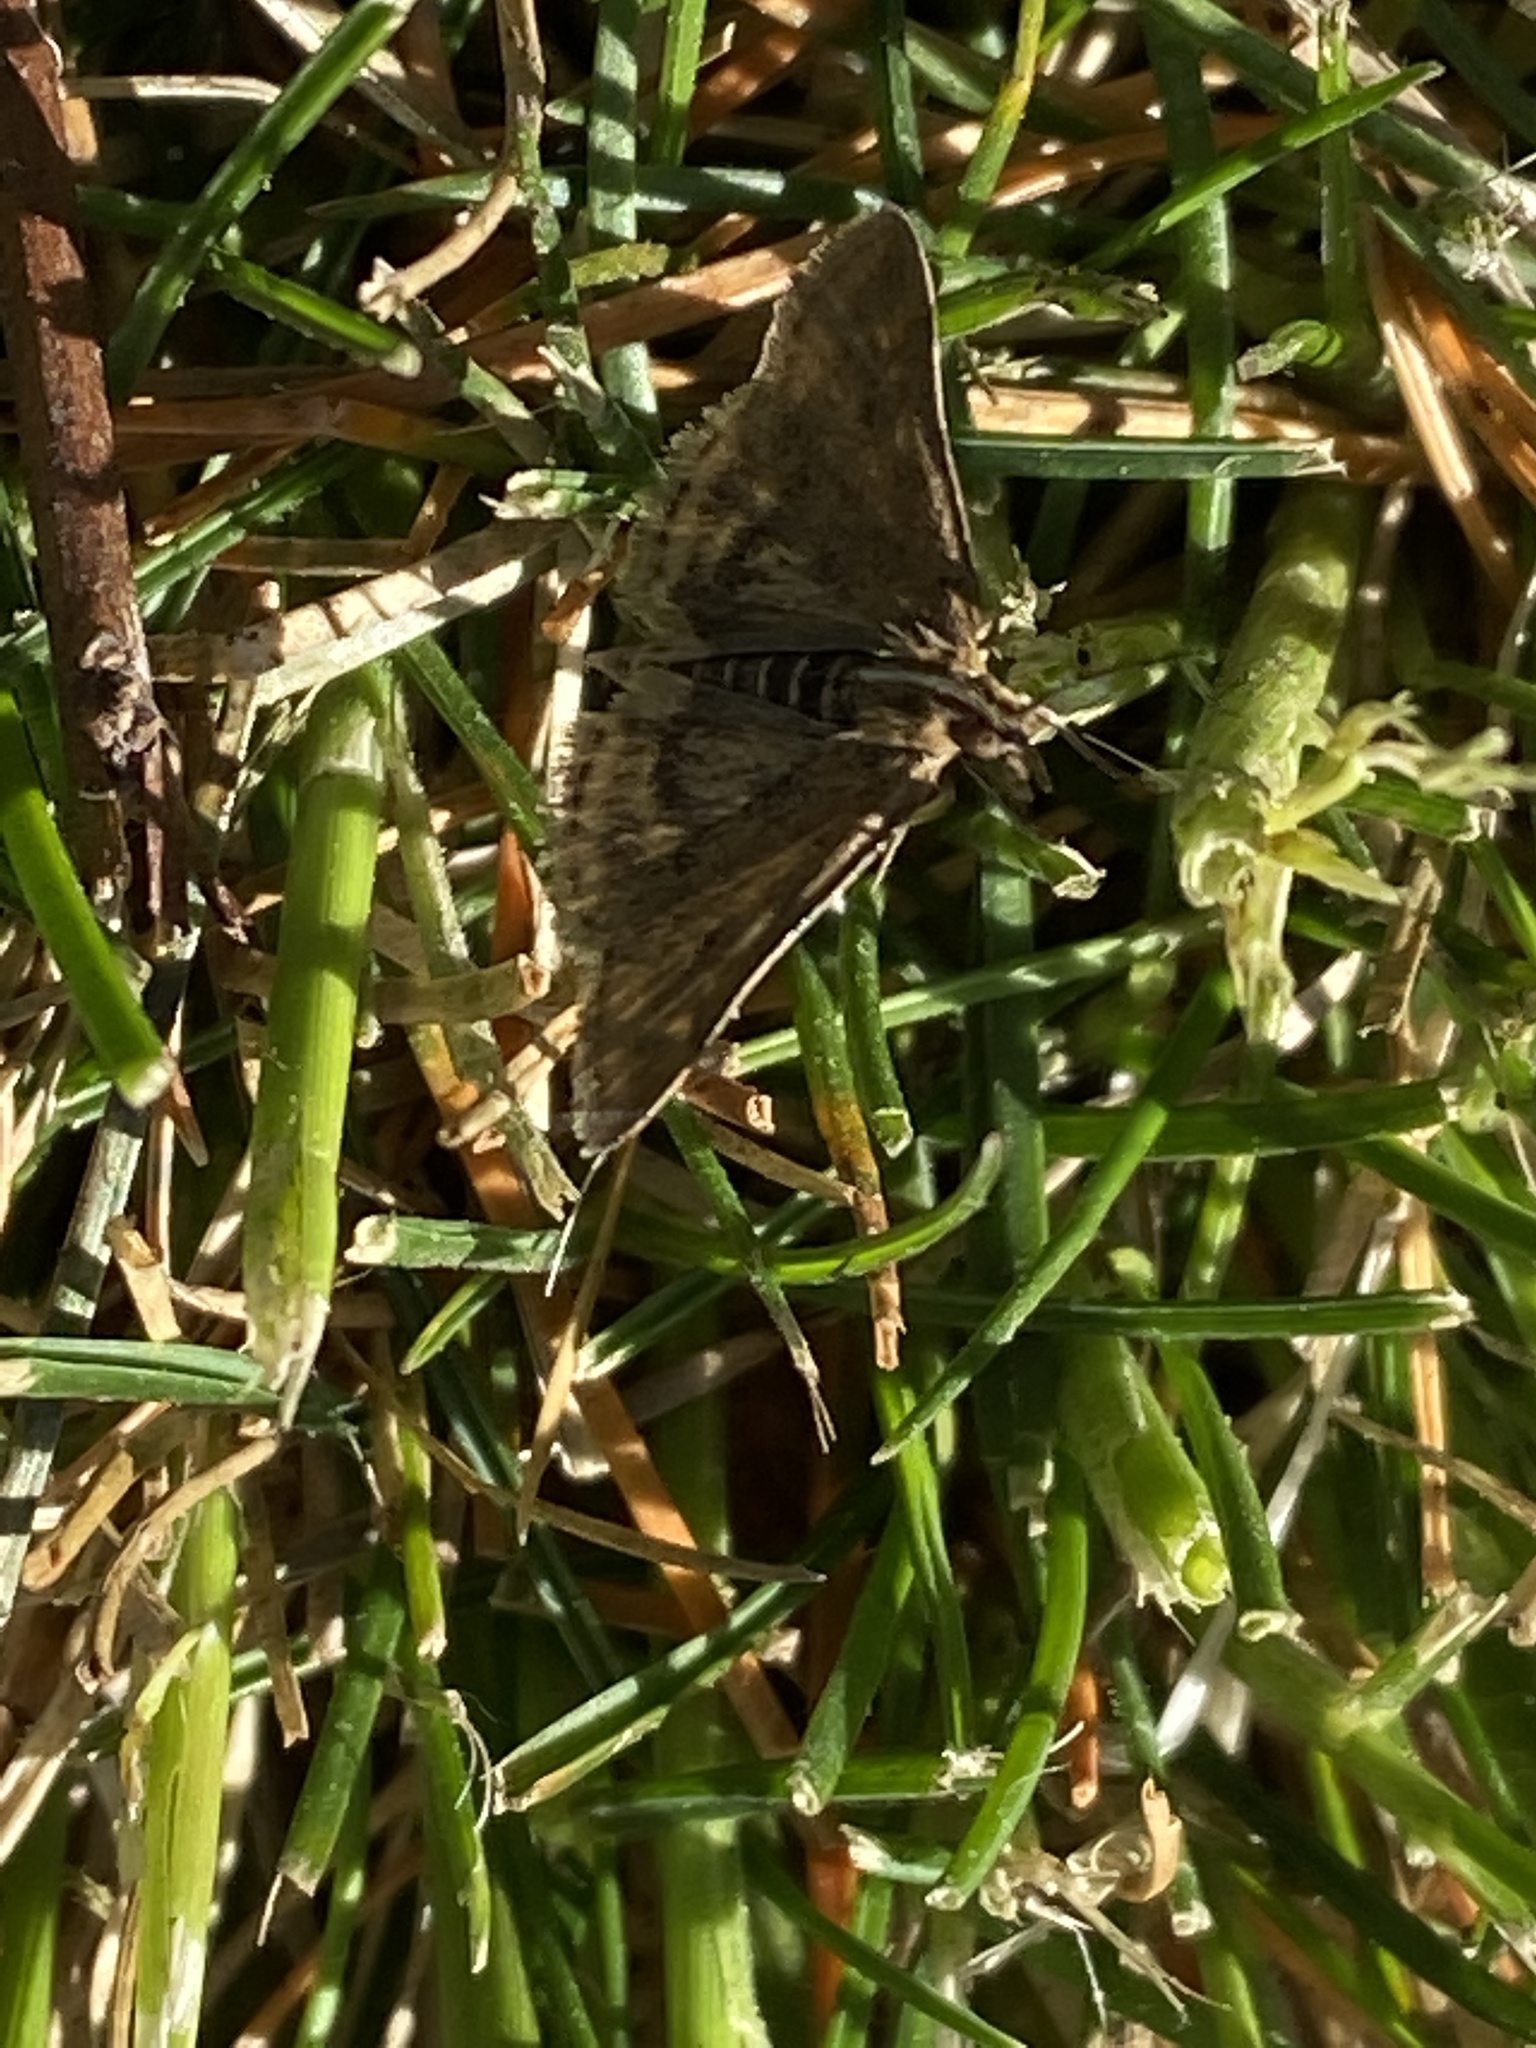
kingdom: Animalia
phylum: Arthropoda
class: Insecta
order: Lepidoptera
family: Crambidae
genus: Pyrausta
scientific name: Pyrausta despicata
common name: Straw-barred pearl
